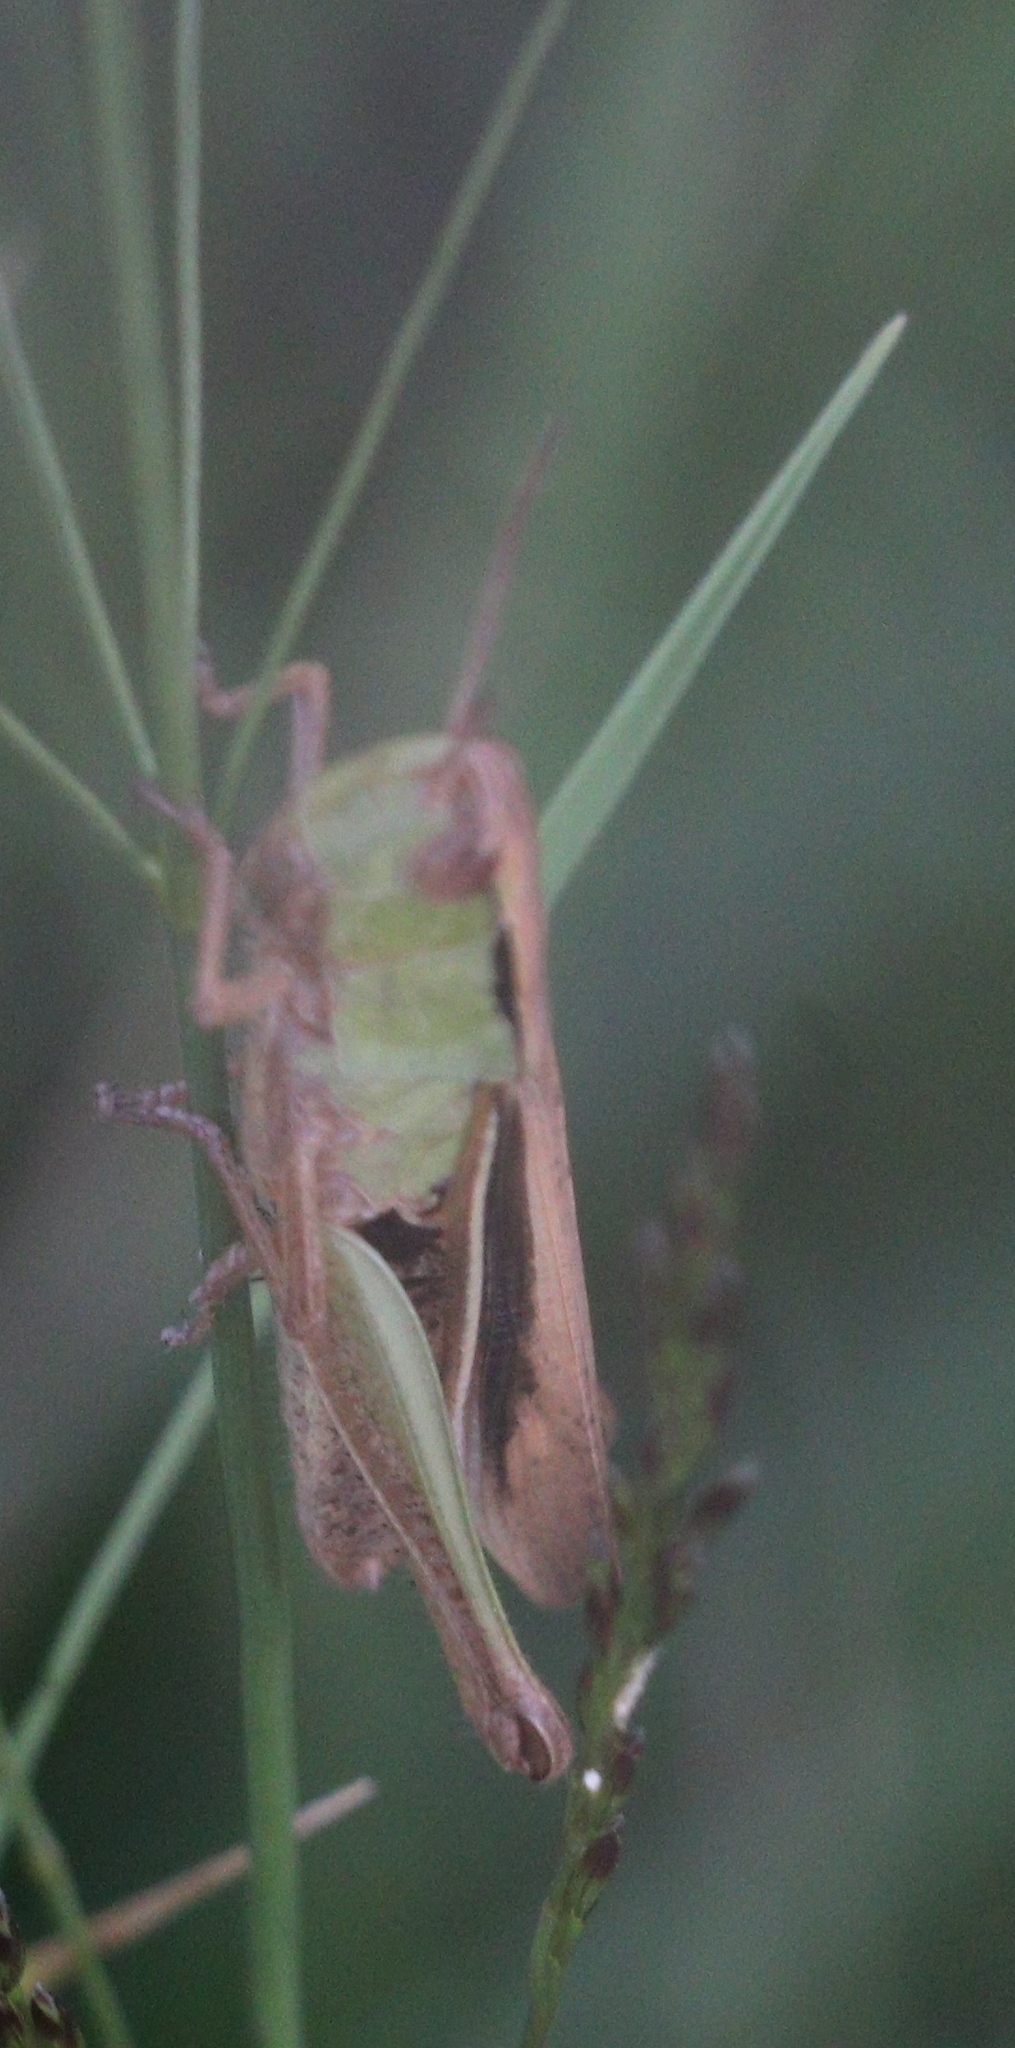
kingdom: Animalia
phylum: Arthropoda
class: Insecta
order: Orthoptera
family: Acrididae
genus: Chorthippus
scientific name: Chorthippus albomarginatus
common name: Lesser marsh grasshopper
